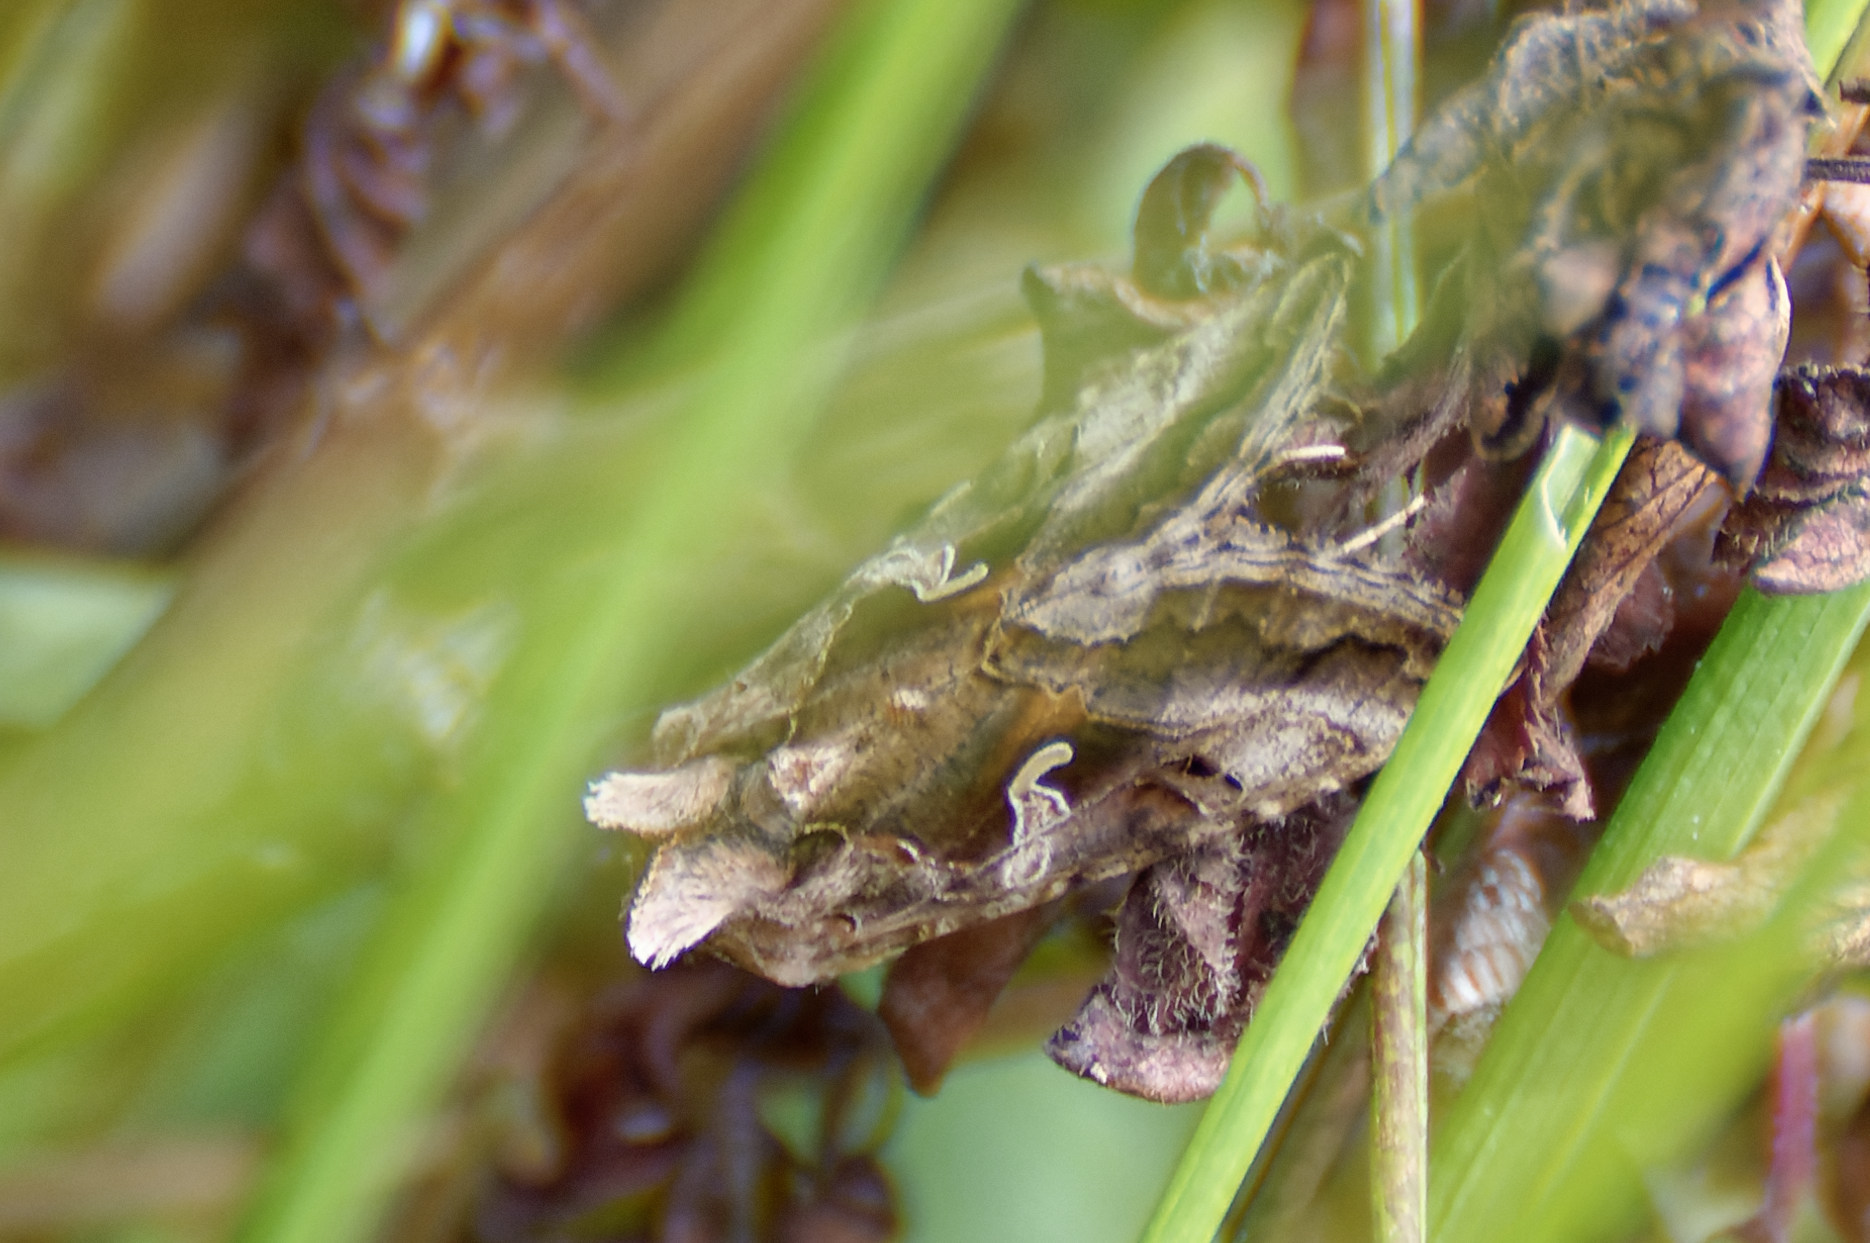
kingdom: Animalia
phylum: Arthropoda
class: Insecta
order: Lepidoptera
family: Noctuidae
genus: Autographa
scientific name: Autographa gamma
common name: Silver y
